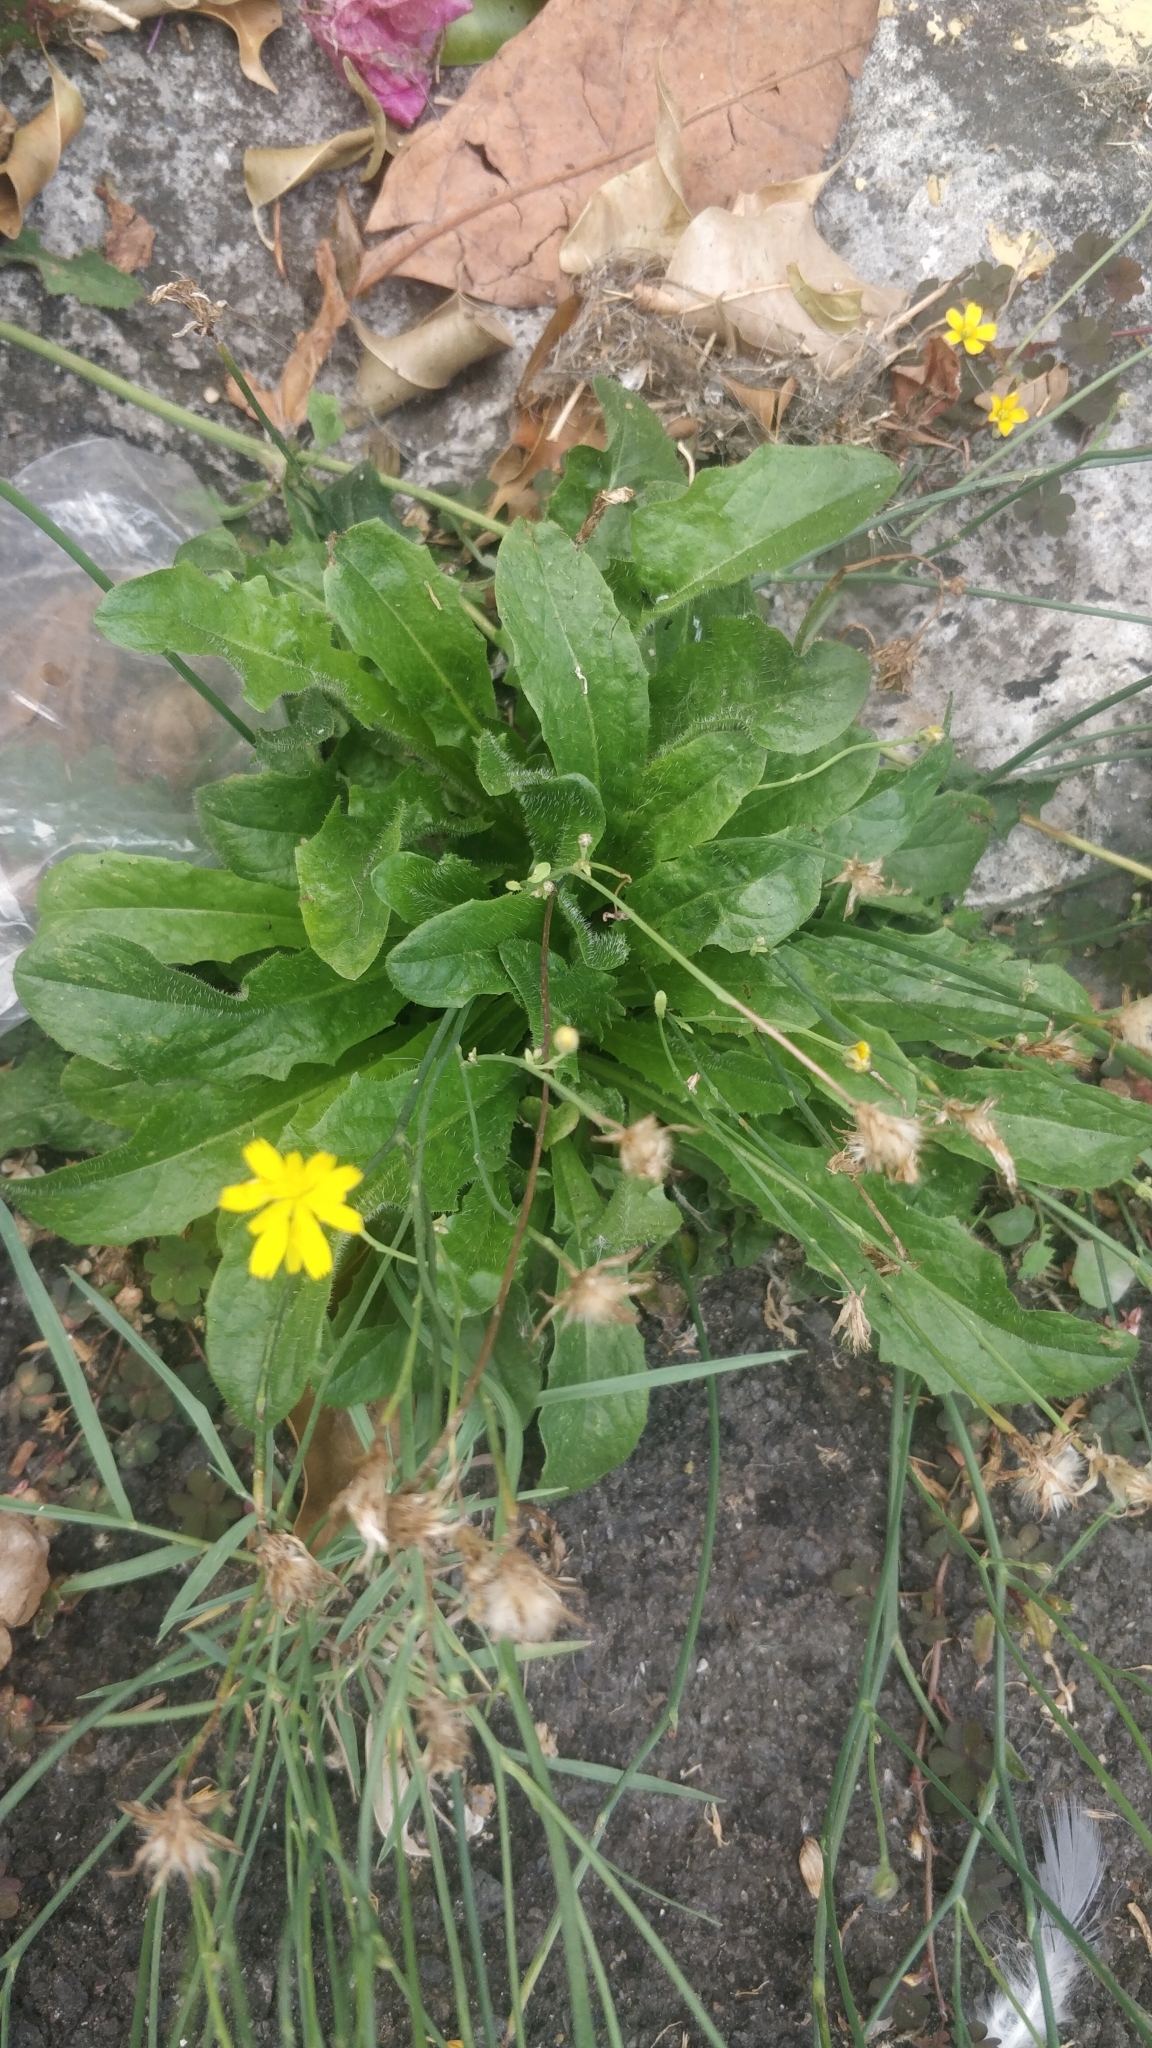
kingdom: Plantae
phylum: Tracheophyta
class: Magnoliopsida
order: Asterales
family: Asteraceae
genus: Hypochaeris
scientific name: Hypochaeris radicata
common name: Flatweed
